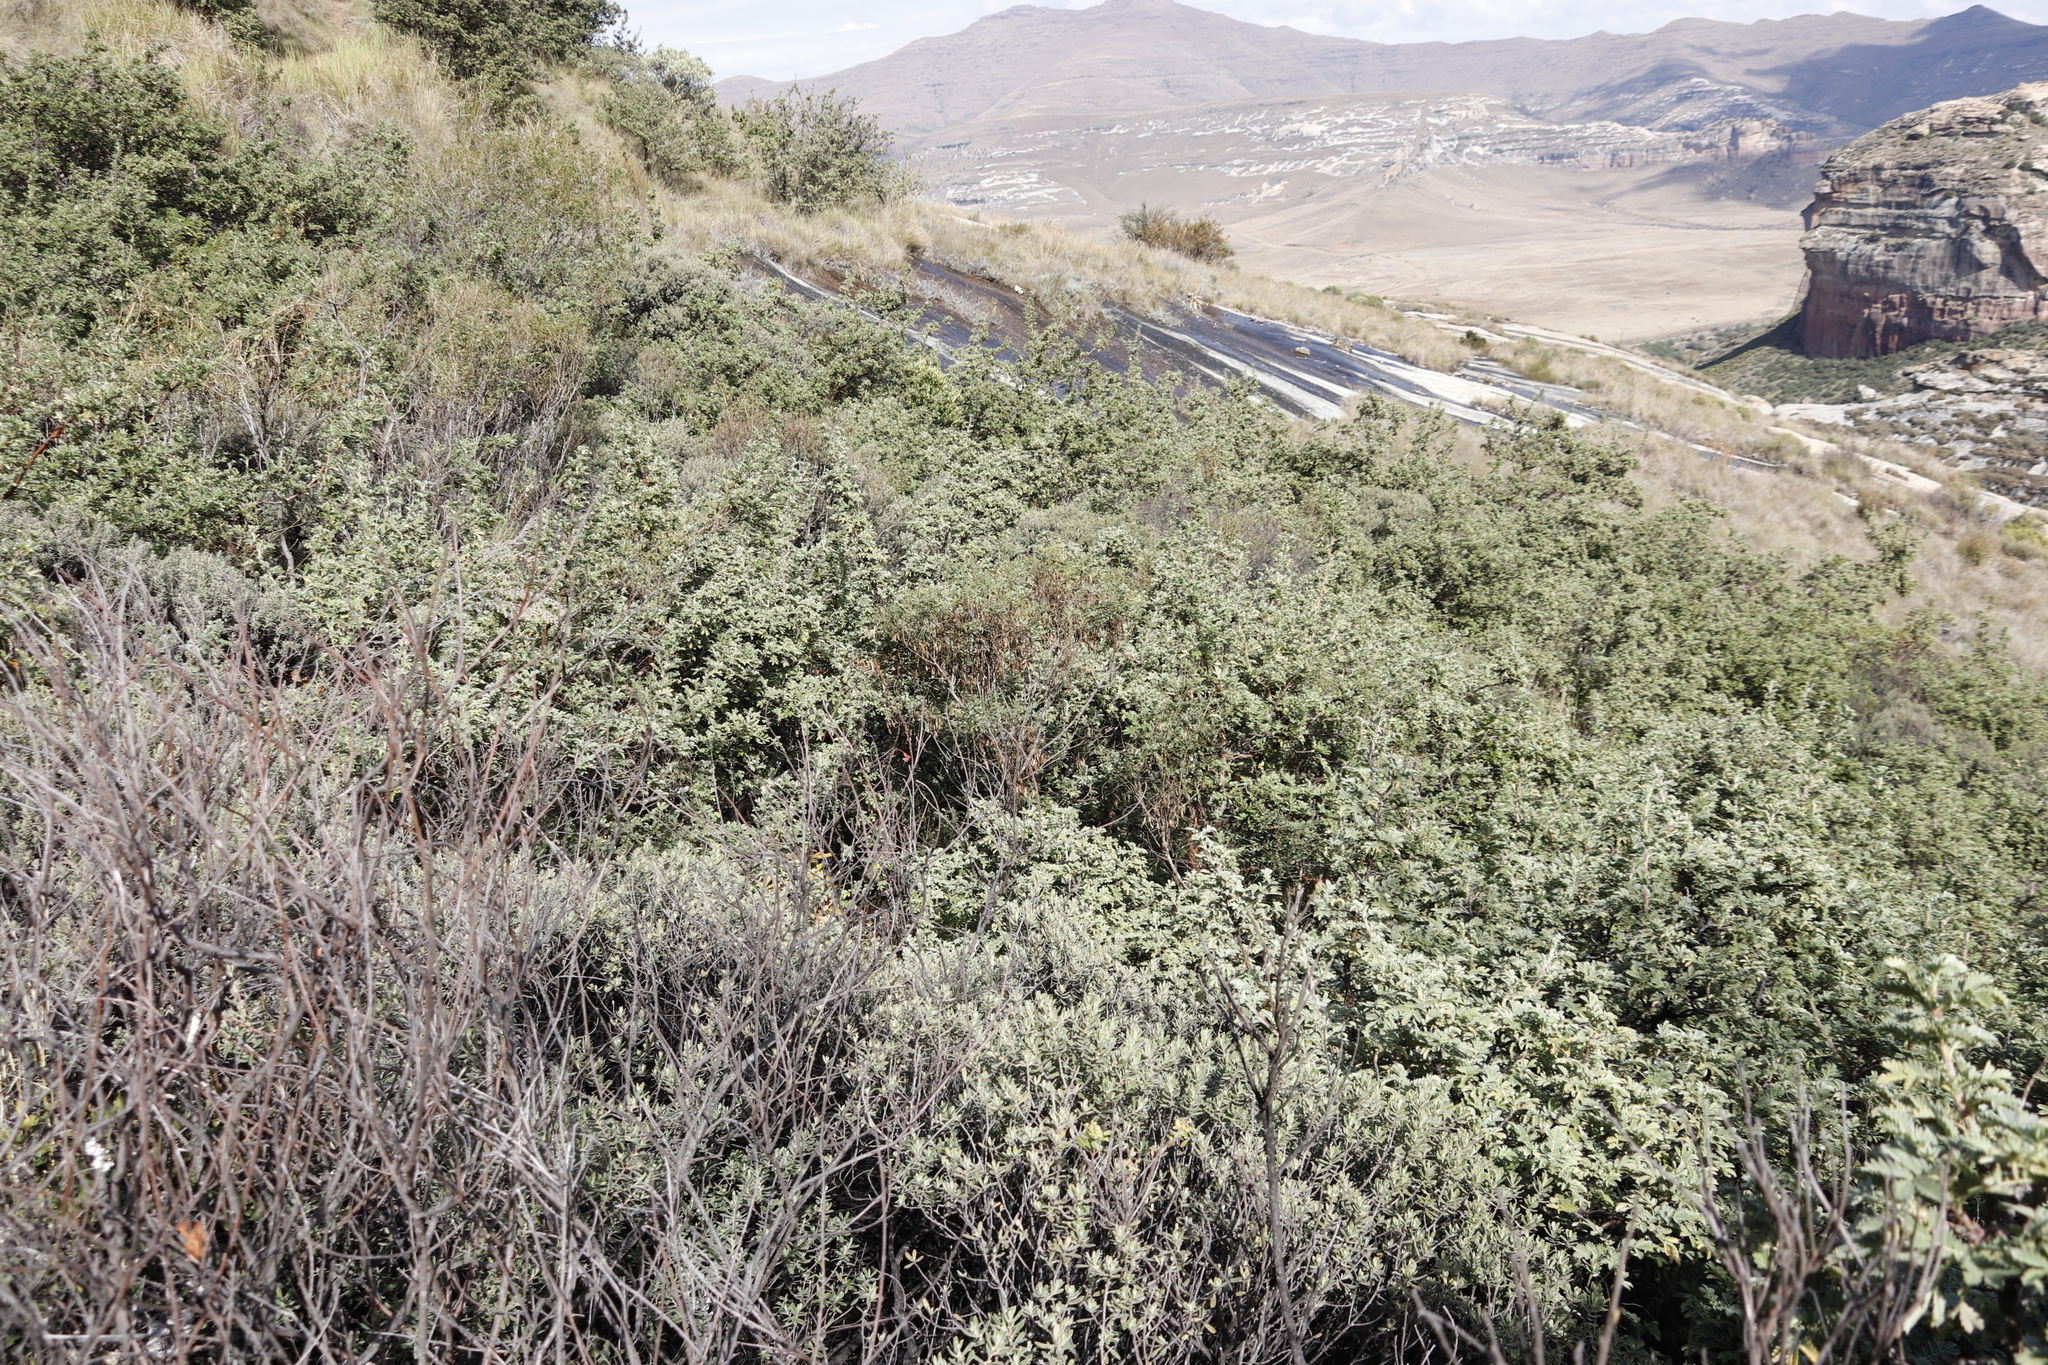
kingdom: Plantae
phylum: Tracheophyta
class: Magnoliopsida
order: Rosales
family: Rosaceae
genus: Leucosidea
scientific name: Leucosidea sericea
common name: Oldwood
